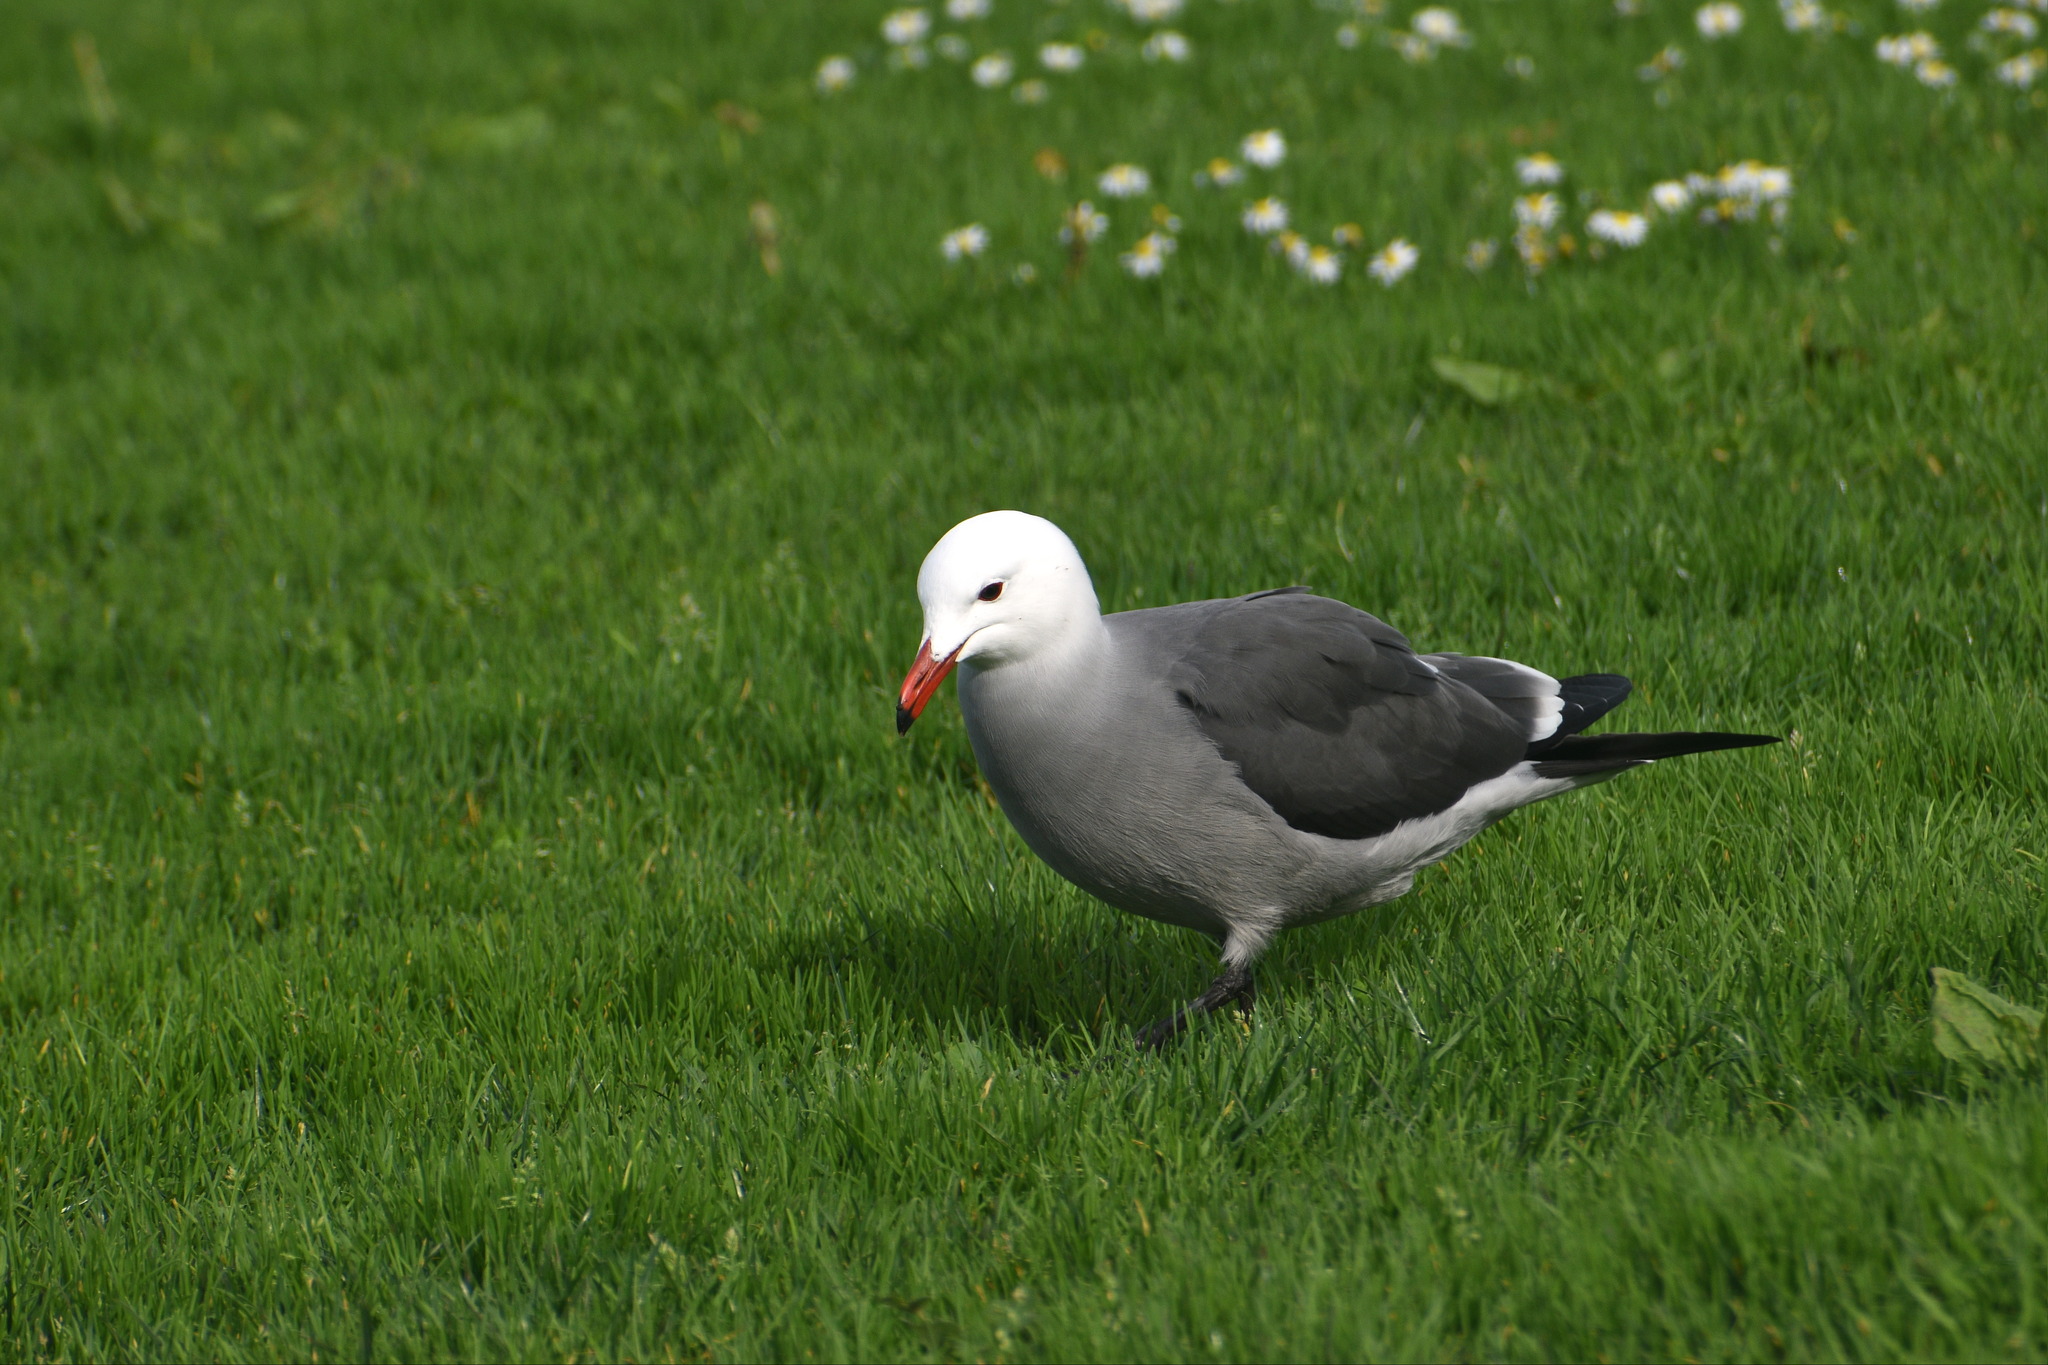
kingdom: Animalia
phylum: Chordata
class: Aves
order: Charadriiformes
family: Laridae
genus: Larus
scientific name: Larus heermanni
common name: Heermann's gull
